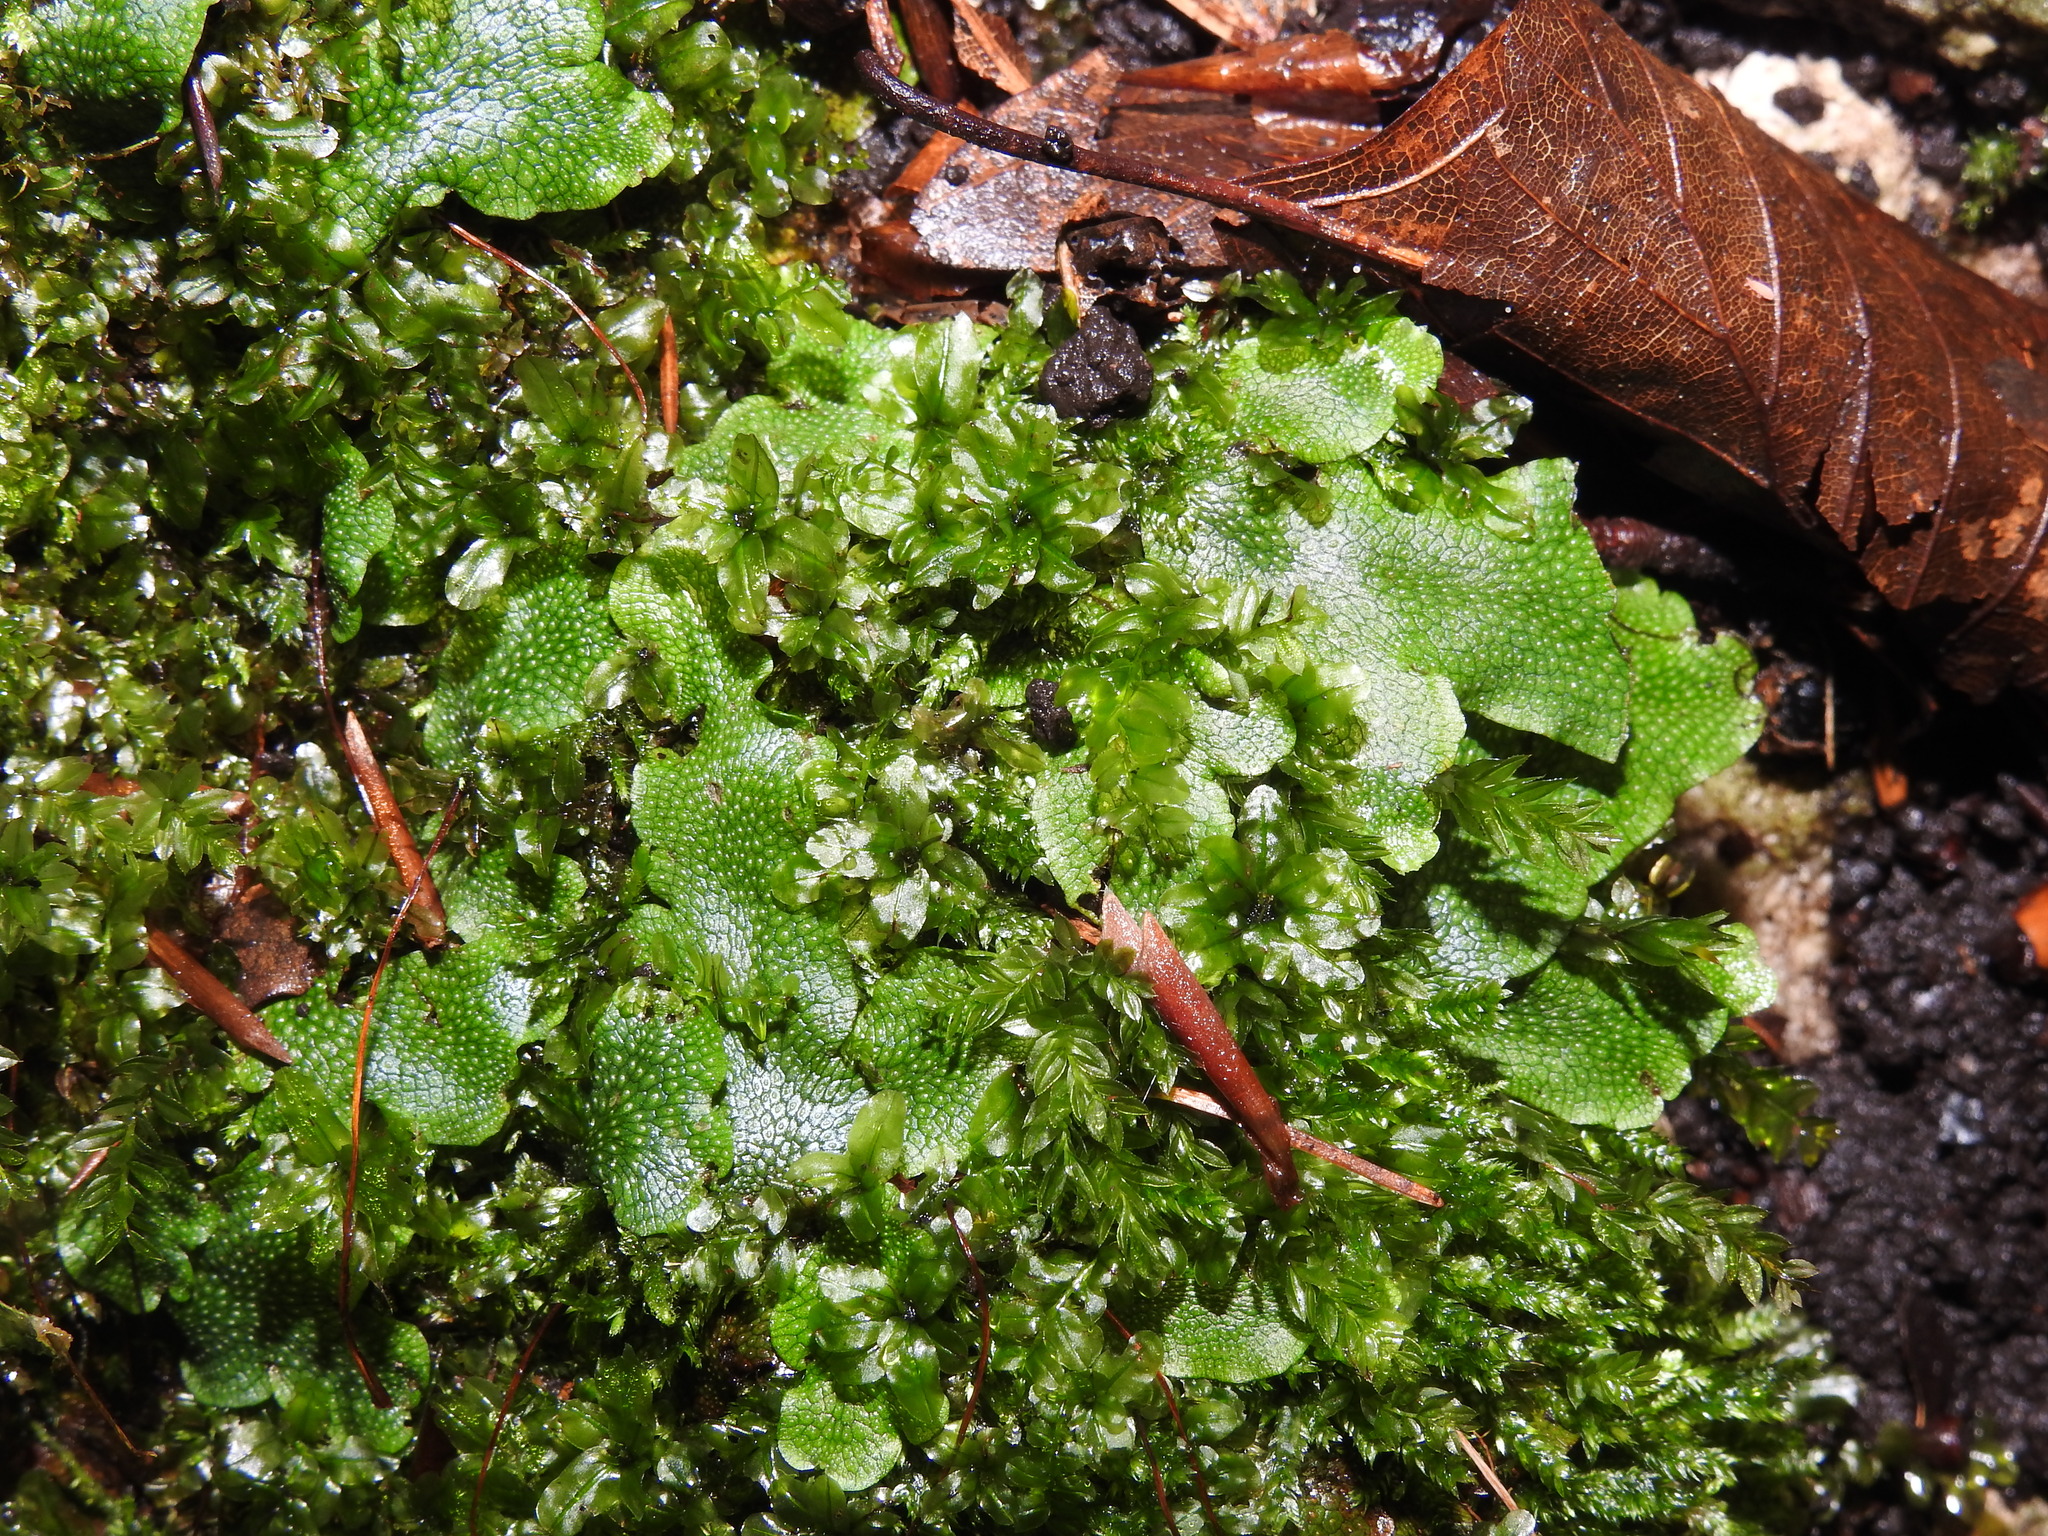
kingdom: Plantae
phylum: Marchantiophyta
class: Marchantiopsida
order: Marchantiales
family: Conocephalaceae
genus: Conocephalum
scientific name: Conocephalum salebrosum
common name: Cat-tongue liverwort
